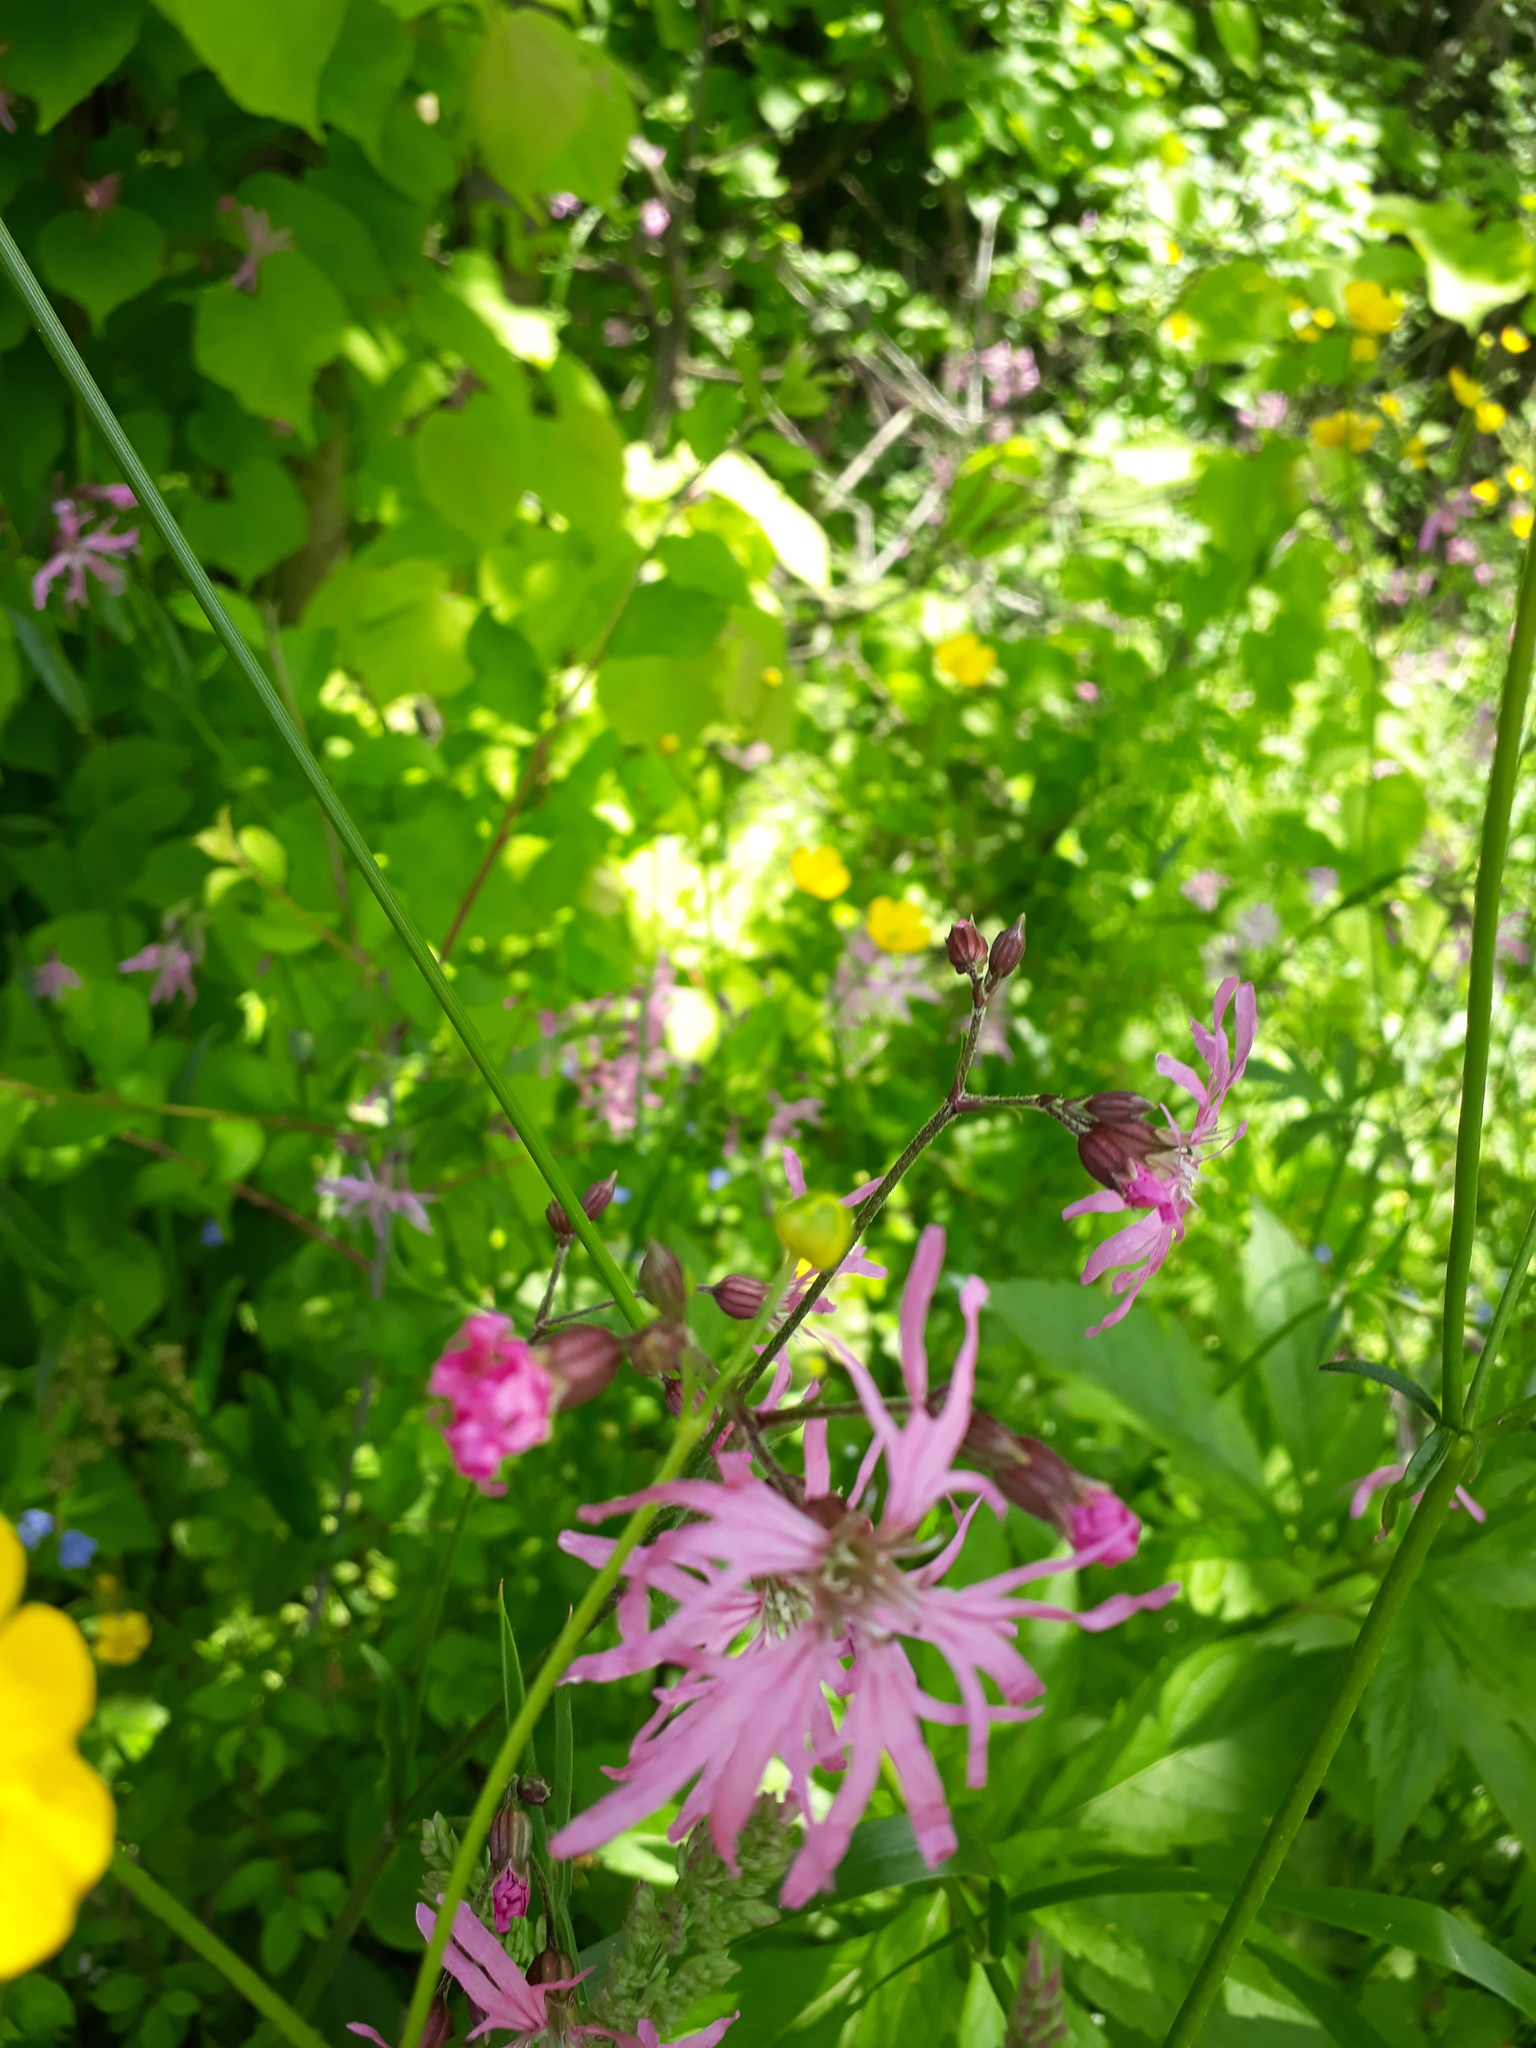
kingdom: Plantae
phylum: Tracheophyta
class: Magnoliopsida
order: Caryophyllales
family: Caryophyllaceae
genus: Silene
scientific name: Silene flos-cuculi
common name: Ragged-robin
